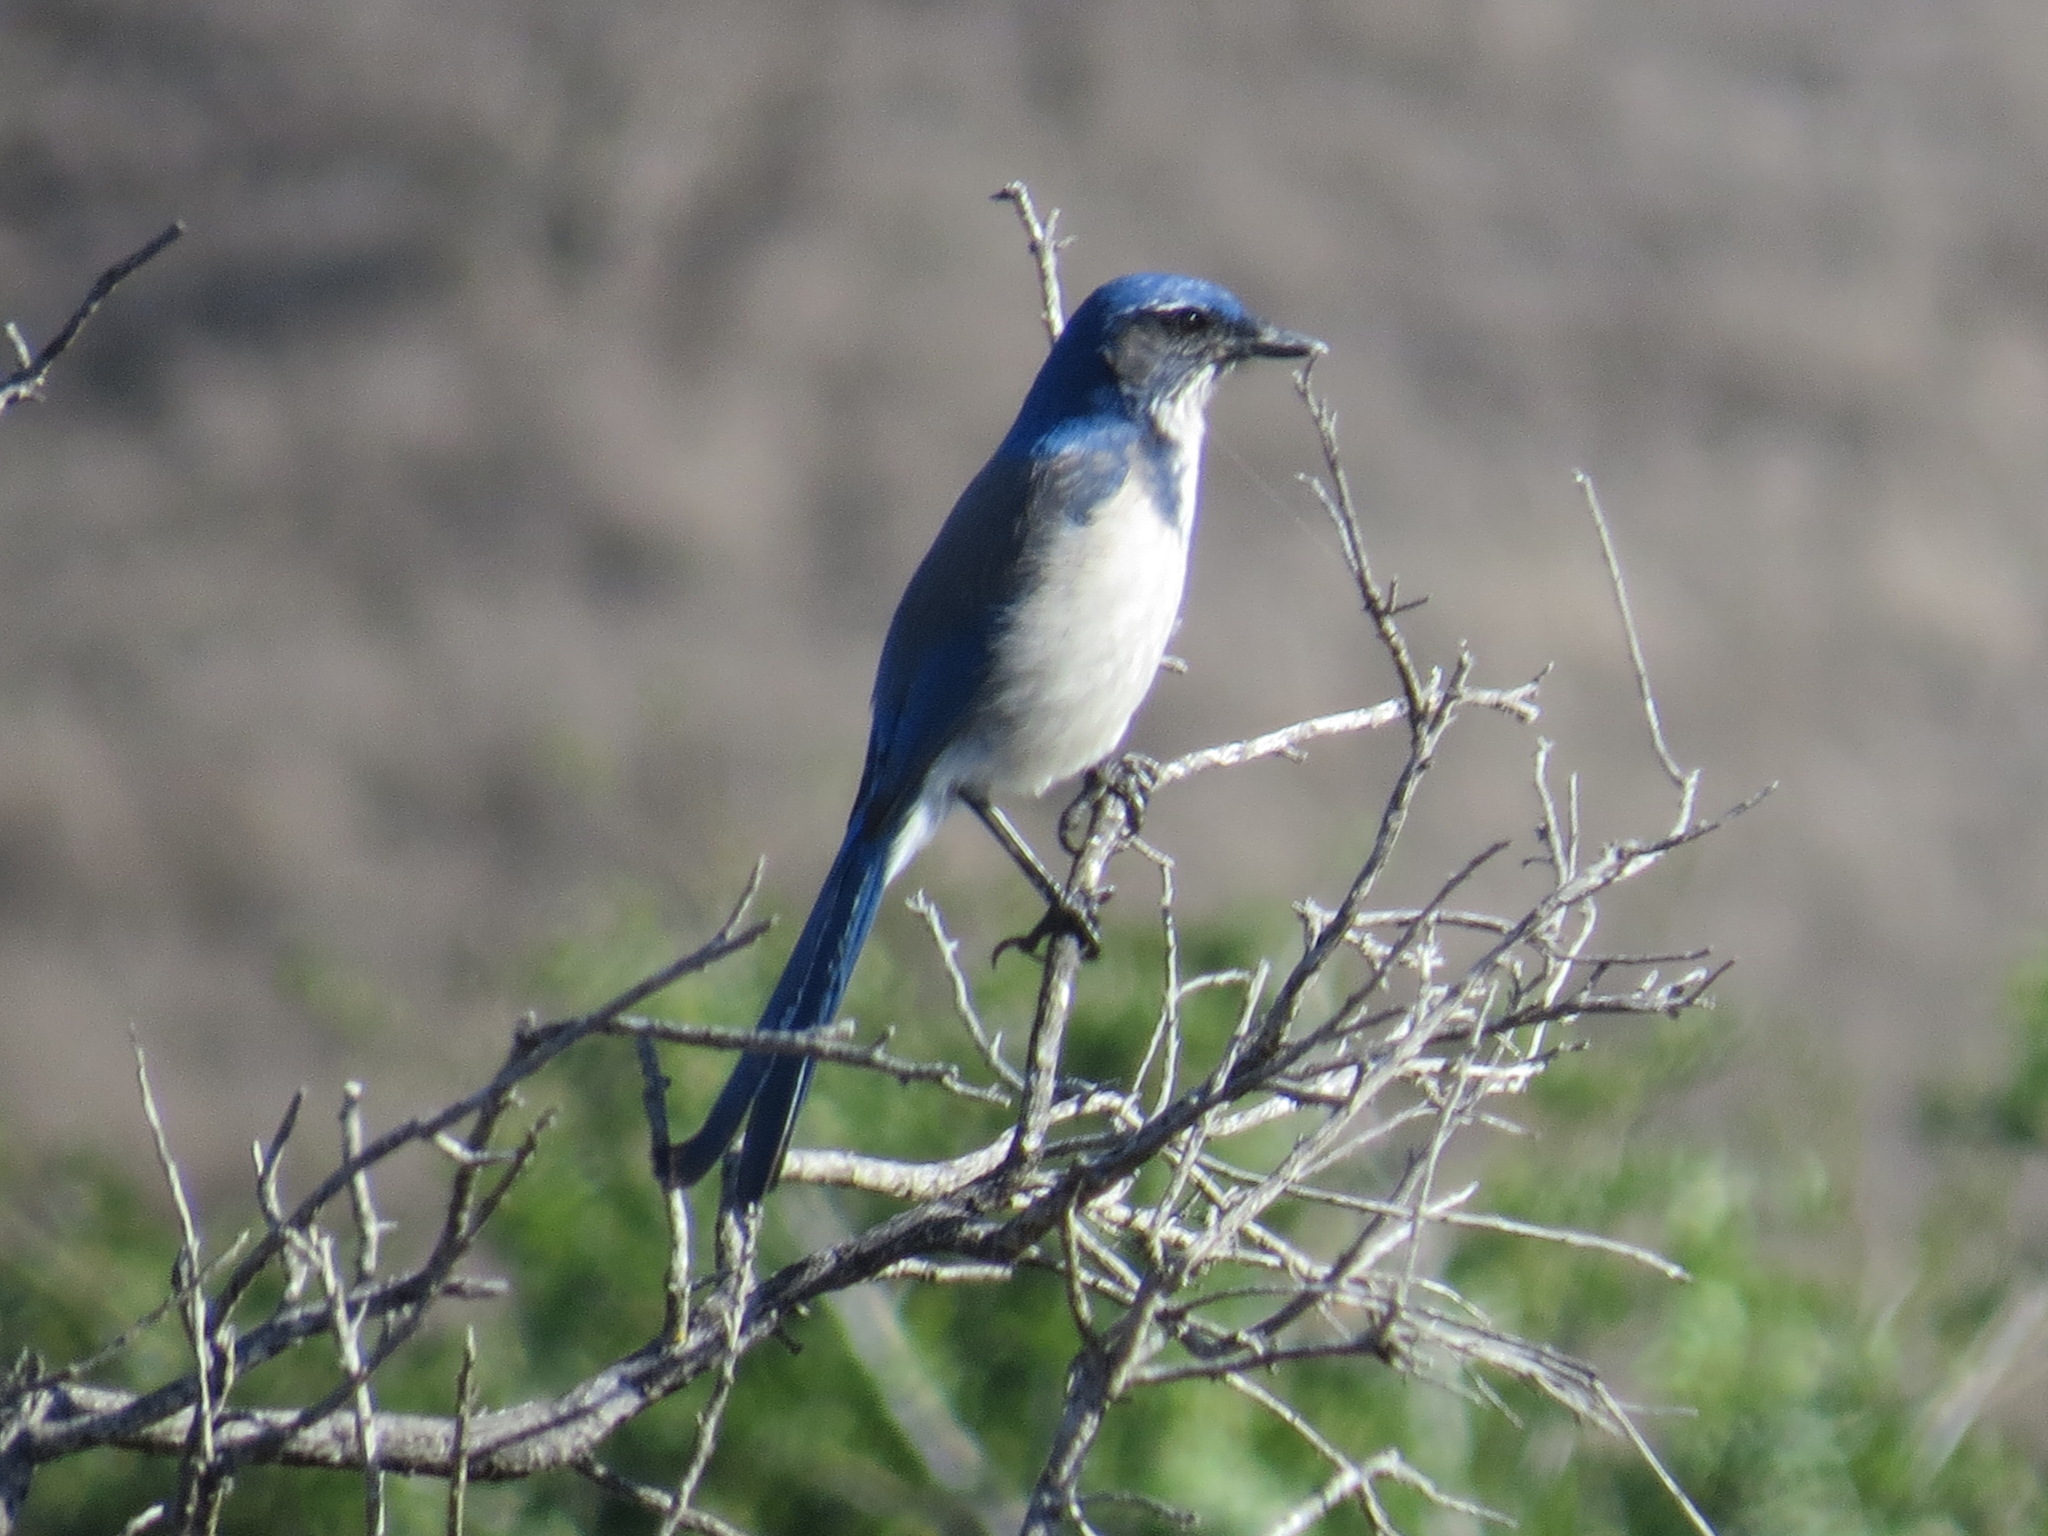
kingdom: Animalia
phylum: Chordata
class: Aves
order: Passeriformes
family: Corvidae
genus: Aphelocoma
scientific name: Aphelocoma californica
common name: California scrub-jay
